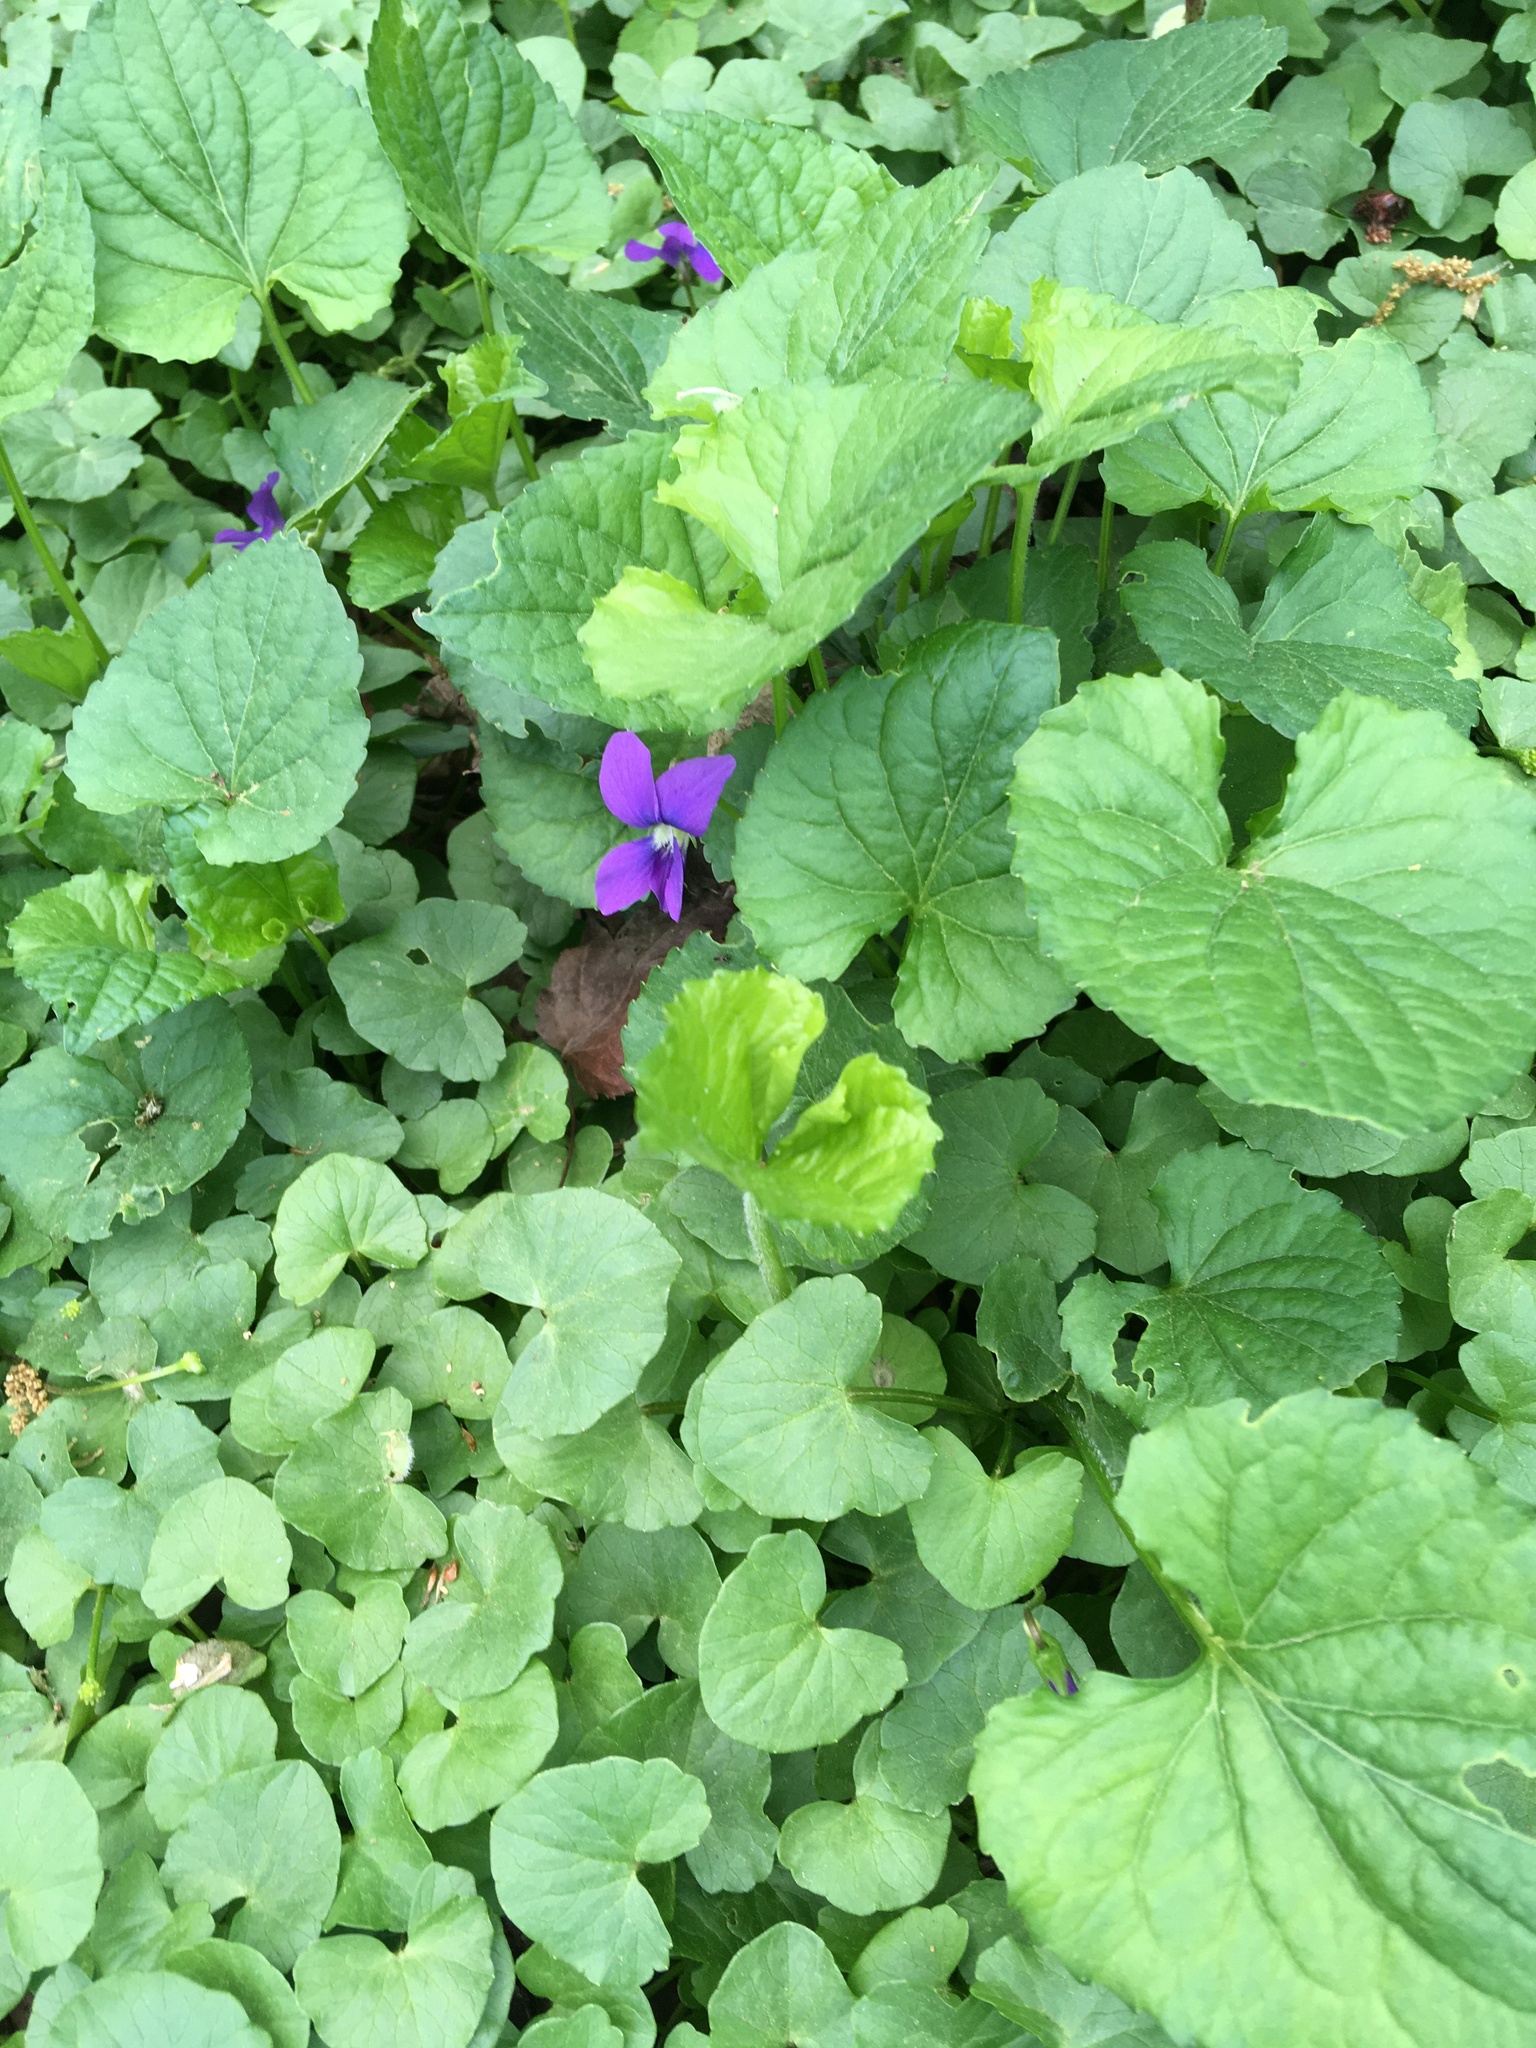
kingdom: Plantae
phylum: Tracheophyta
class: Magnoliopsida
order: Malpighiales
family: Violaceae
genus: Viola
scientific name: Viola sororia
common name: Dooryard violet
